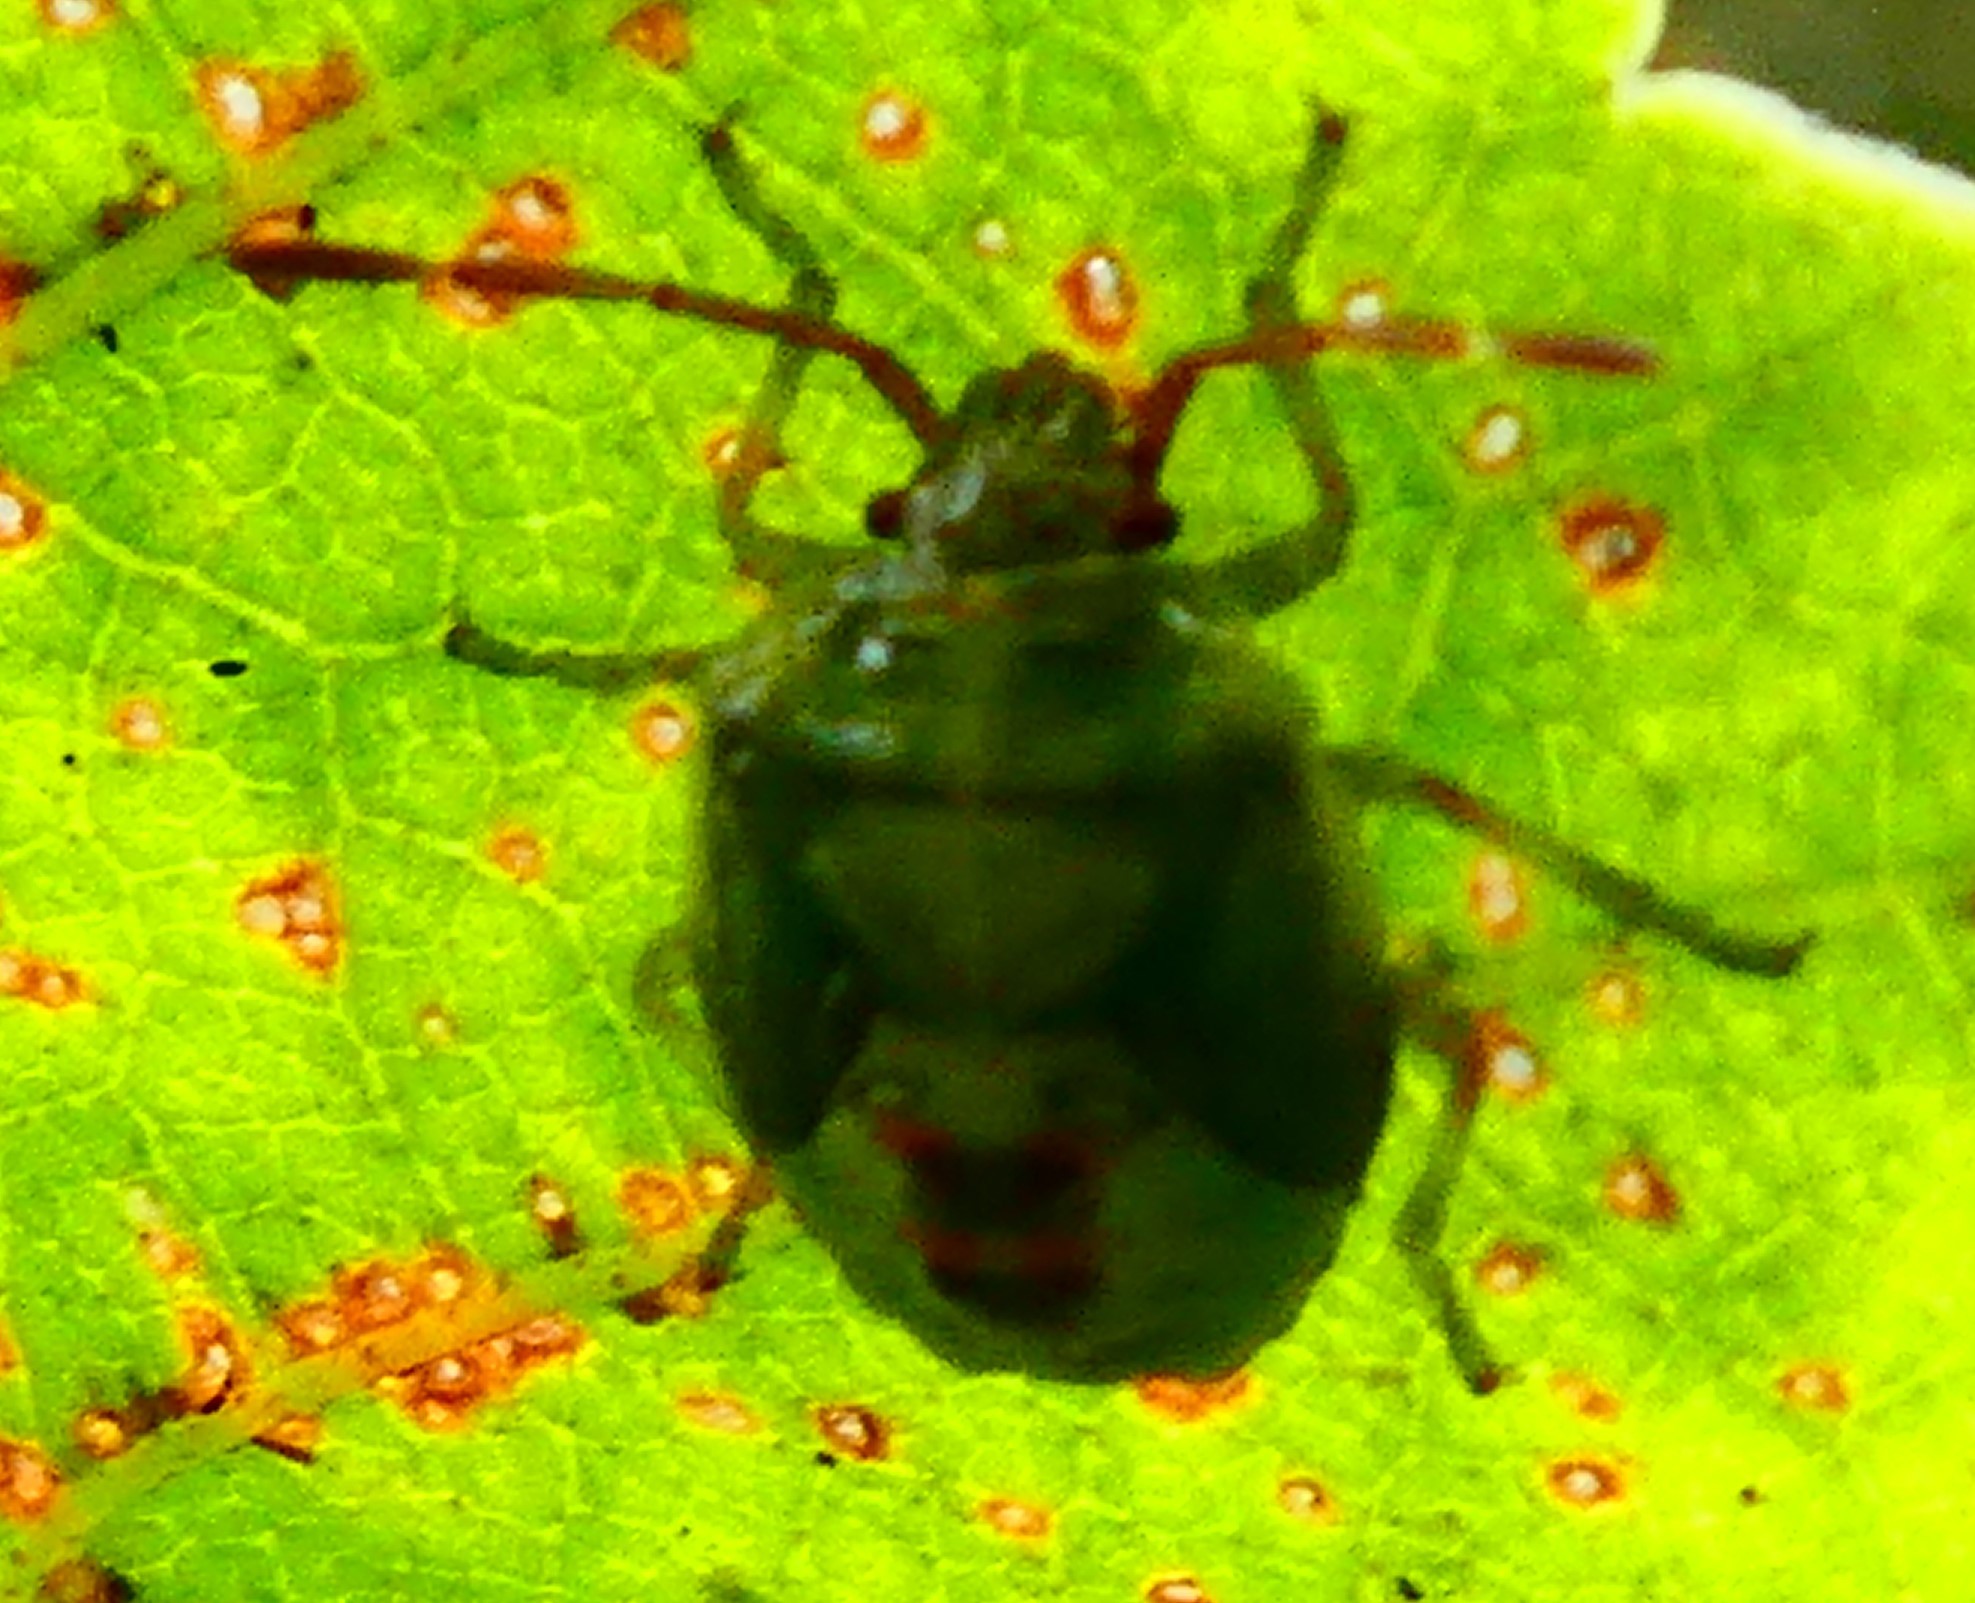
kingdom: Animalia
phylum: Arthropoda
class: Insecta
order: Hemiptera
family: Acanthosomatidae
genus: Elasmostethus
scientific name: Elasmostethus interstinctus
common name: Birch shieldbug
